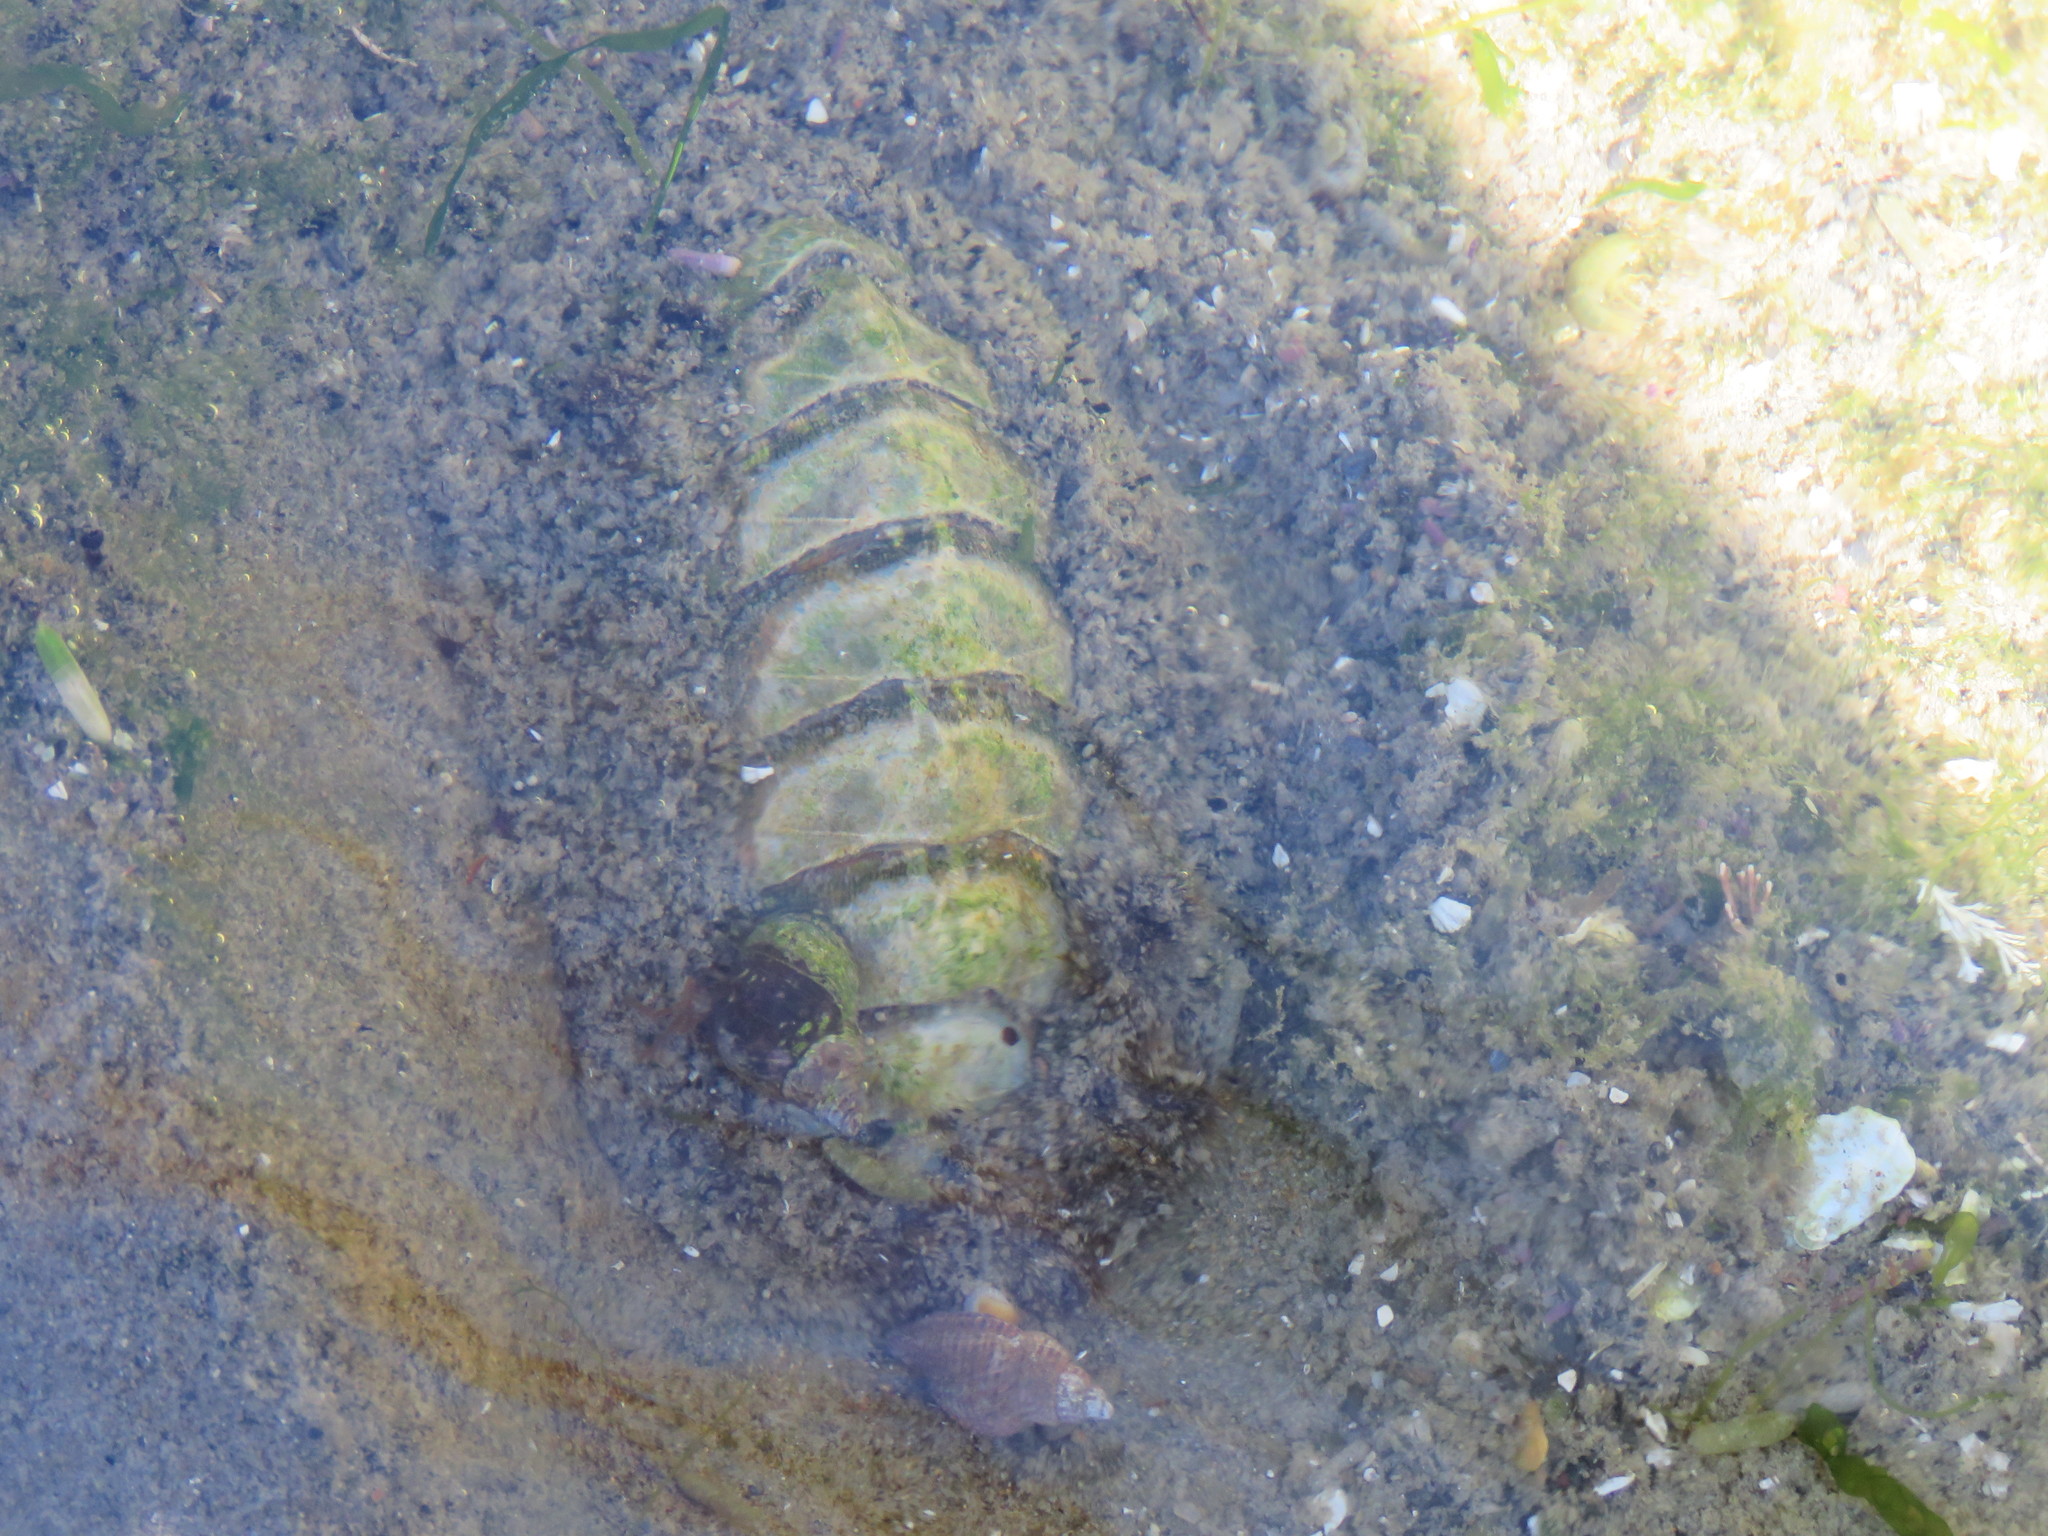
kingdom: Animalia
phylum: Mollusca
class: Polyplacophora
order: Chitonida
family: Mopaliidae
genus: Mopalia
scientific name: Mopalia muscosa
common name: Mossy chiton
